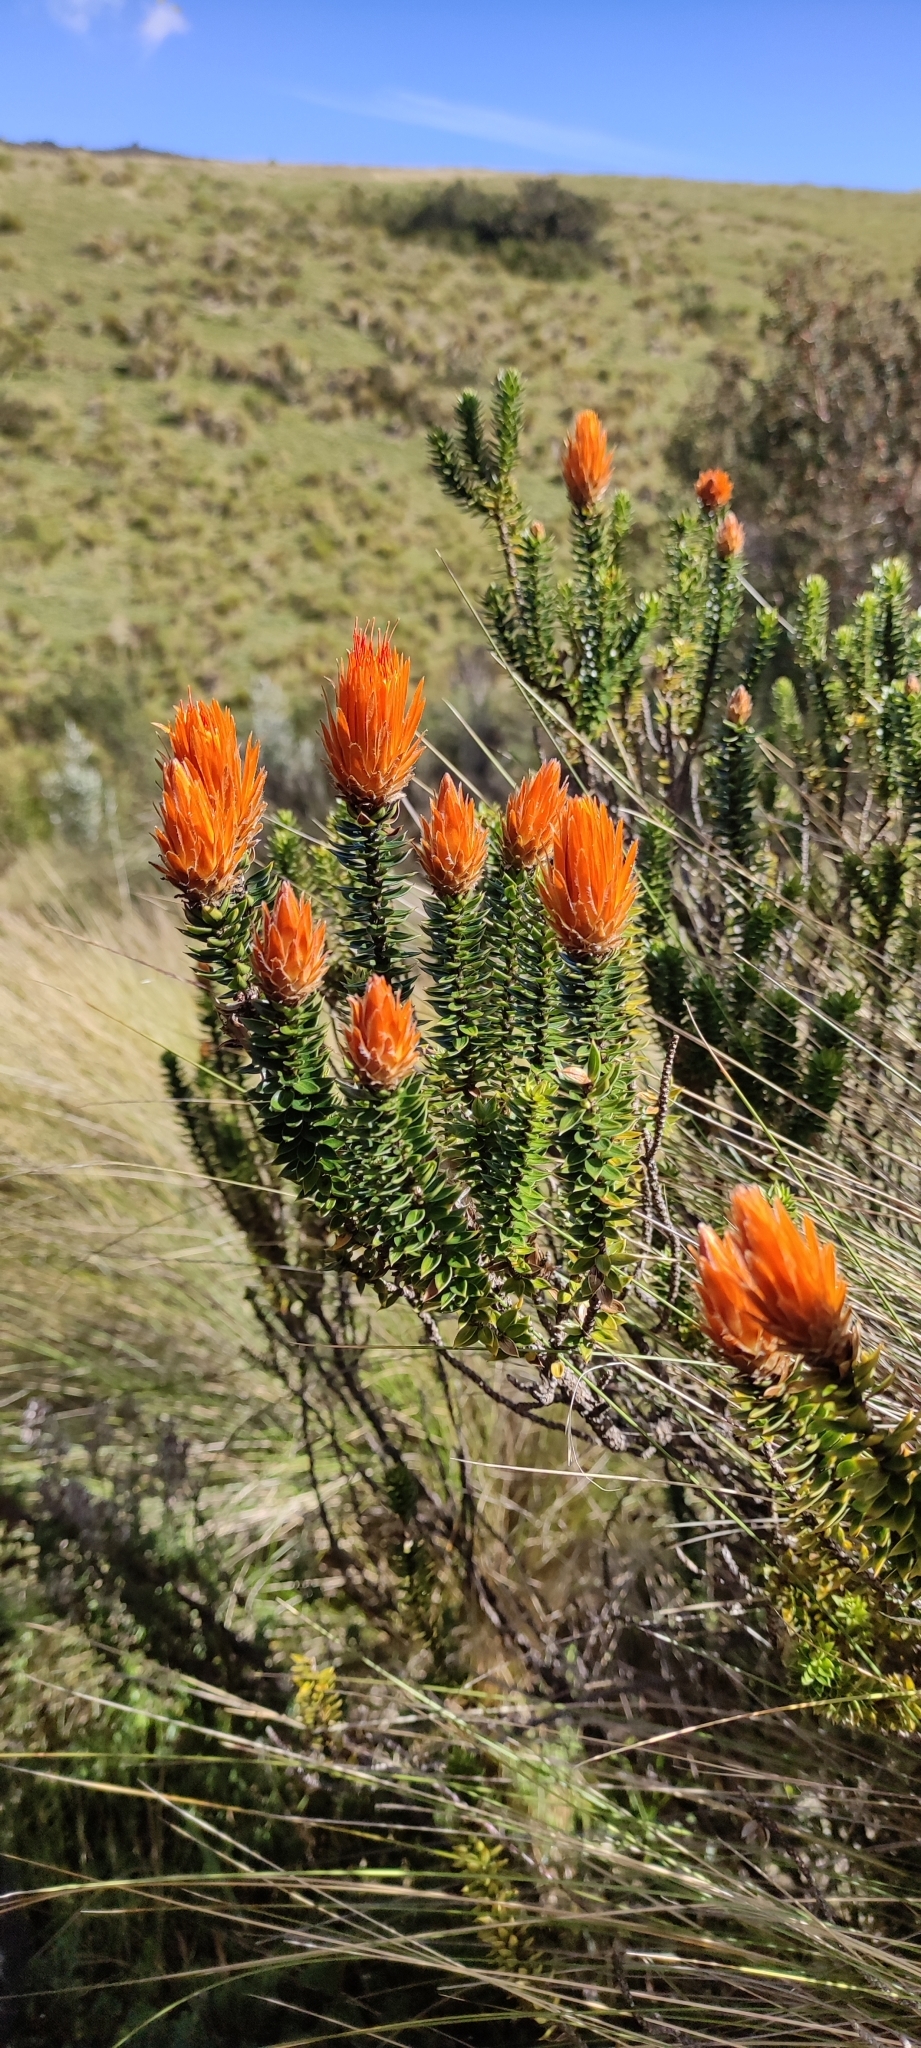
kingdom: Plantae
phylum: Tracheophyta
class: Magnoliopsida
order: Asterales
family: Asteraceae
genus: Chuquiraga
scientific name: Chuquiraga jussieui
